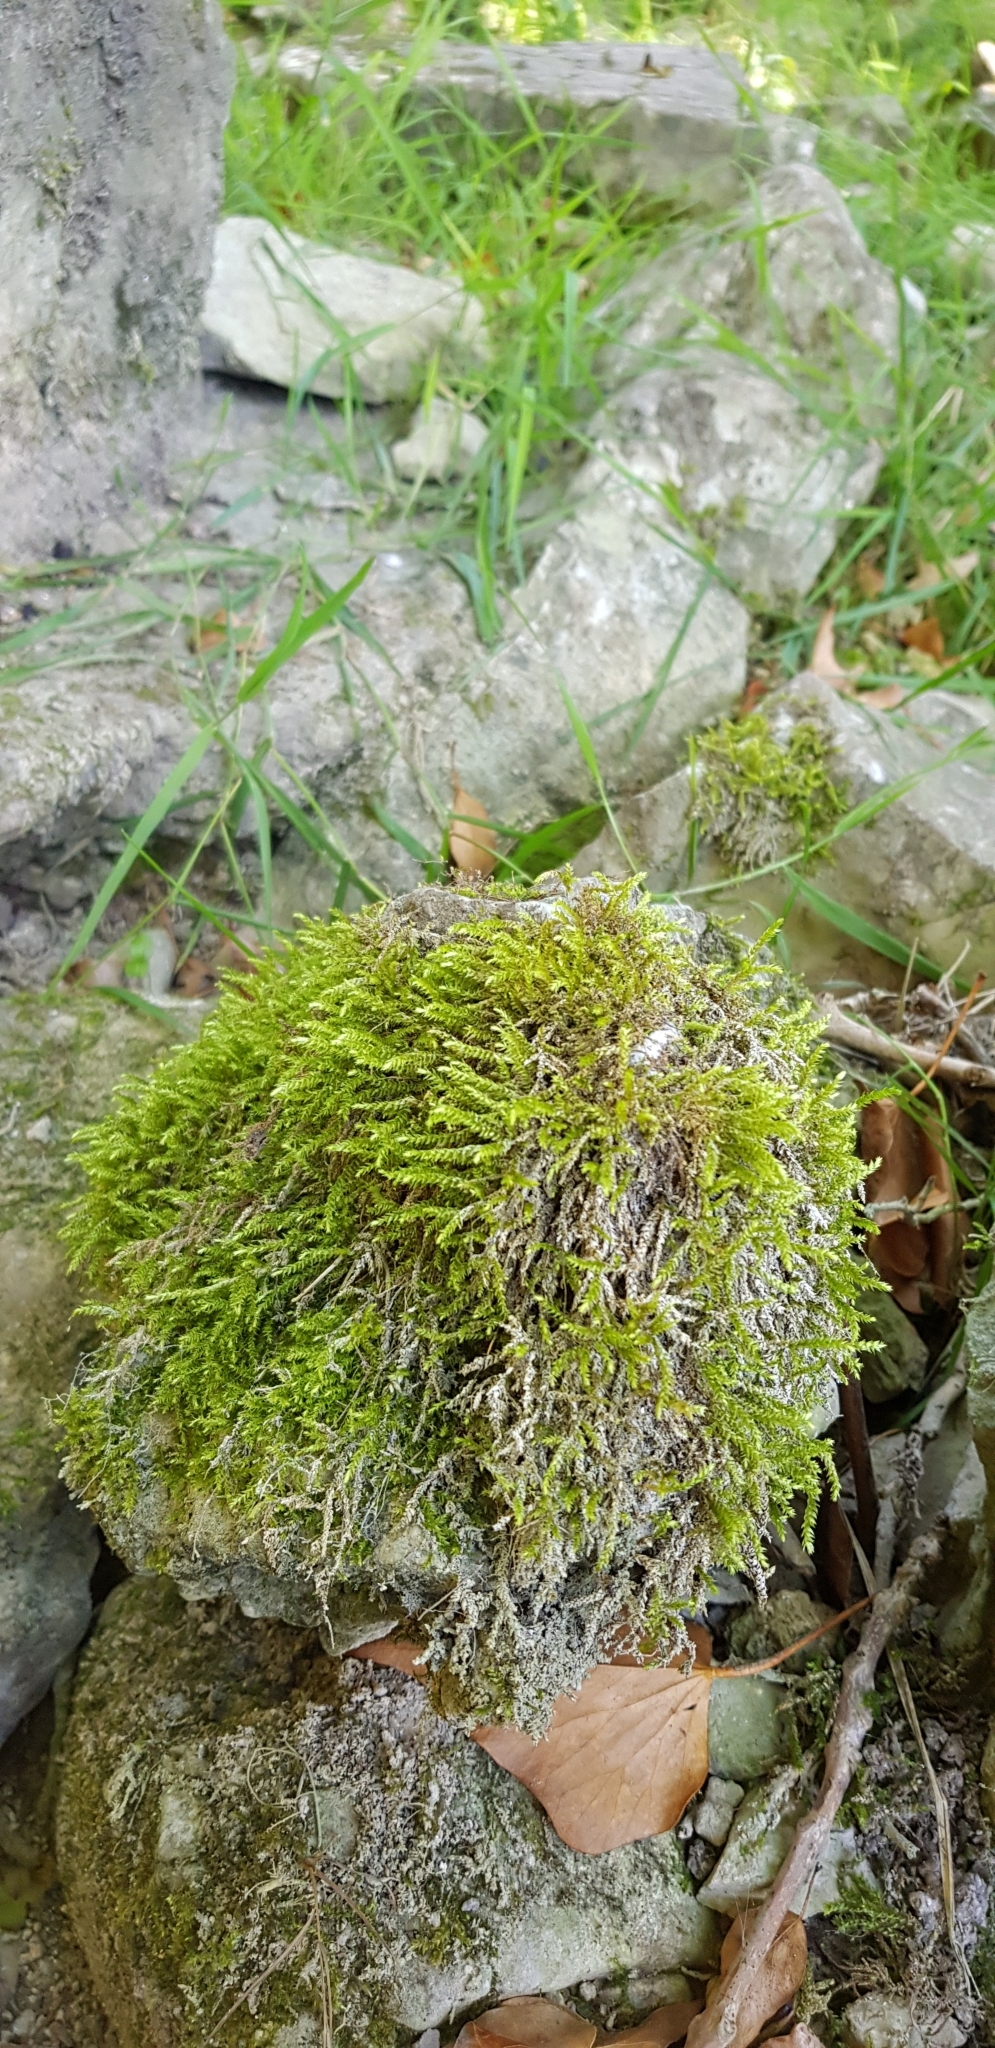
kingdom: Plantae
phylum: Bryophyta
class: Bryopsida
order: Hypnales
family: Brachytheciaceae
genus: Cirriphyllum
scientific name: Cirriphyllum crassinervium
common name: Beech feather-moss
